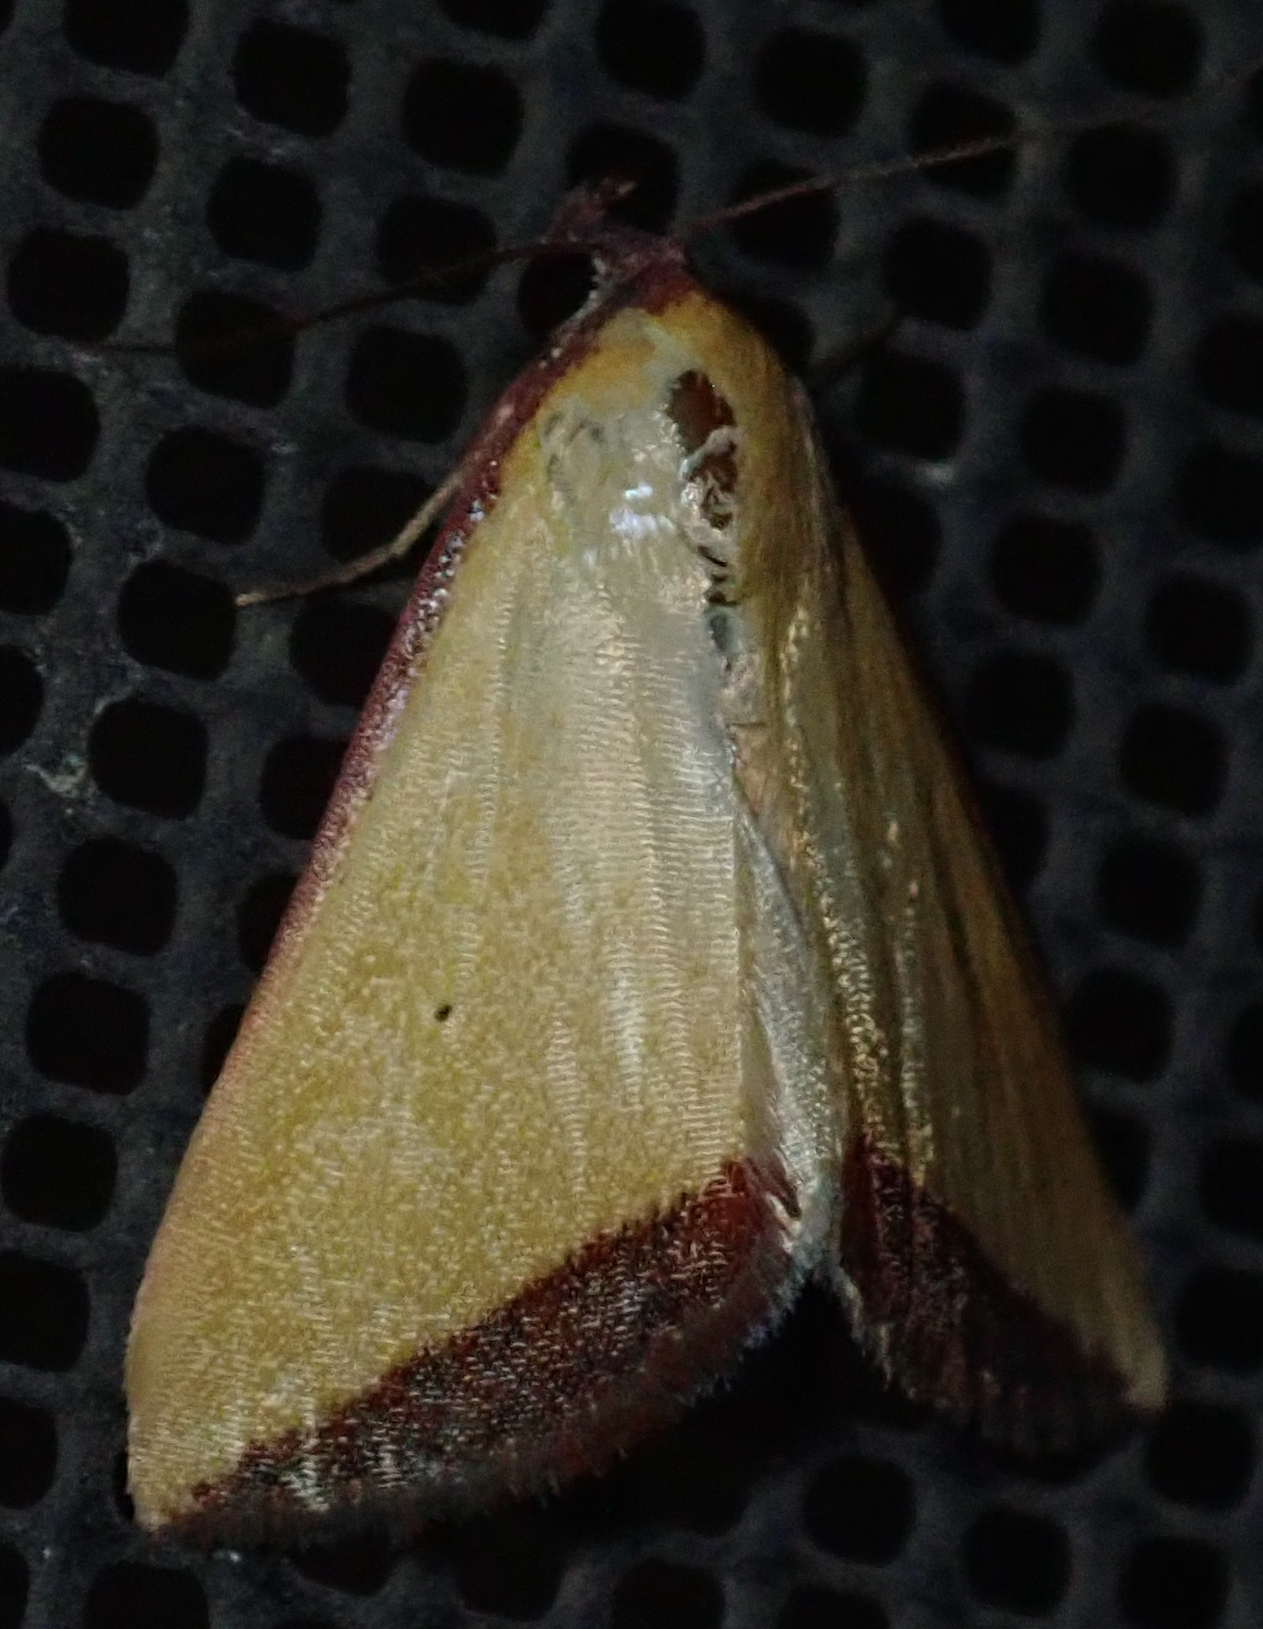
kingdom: Animalia
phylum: Arthropoda
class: Insecta
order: Lepidoptera
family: Erebidae
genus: Phytometra
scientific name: Phytometra subflavalis
